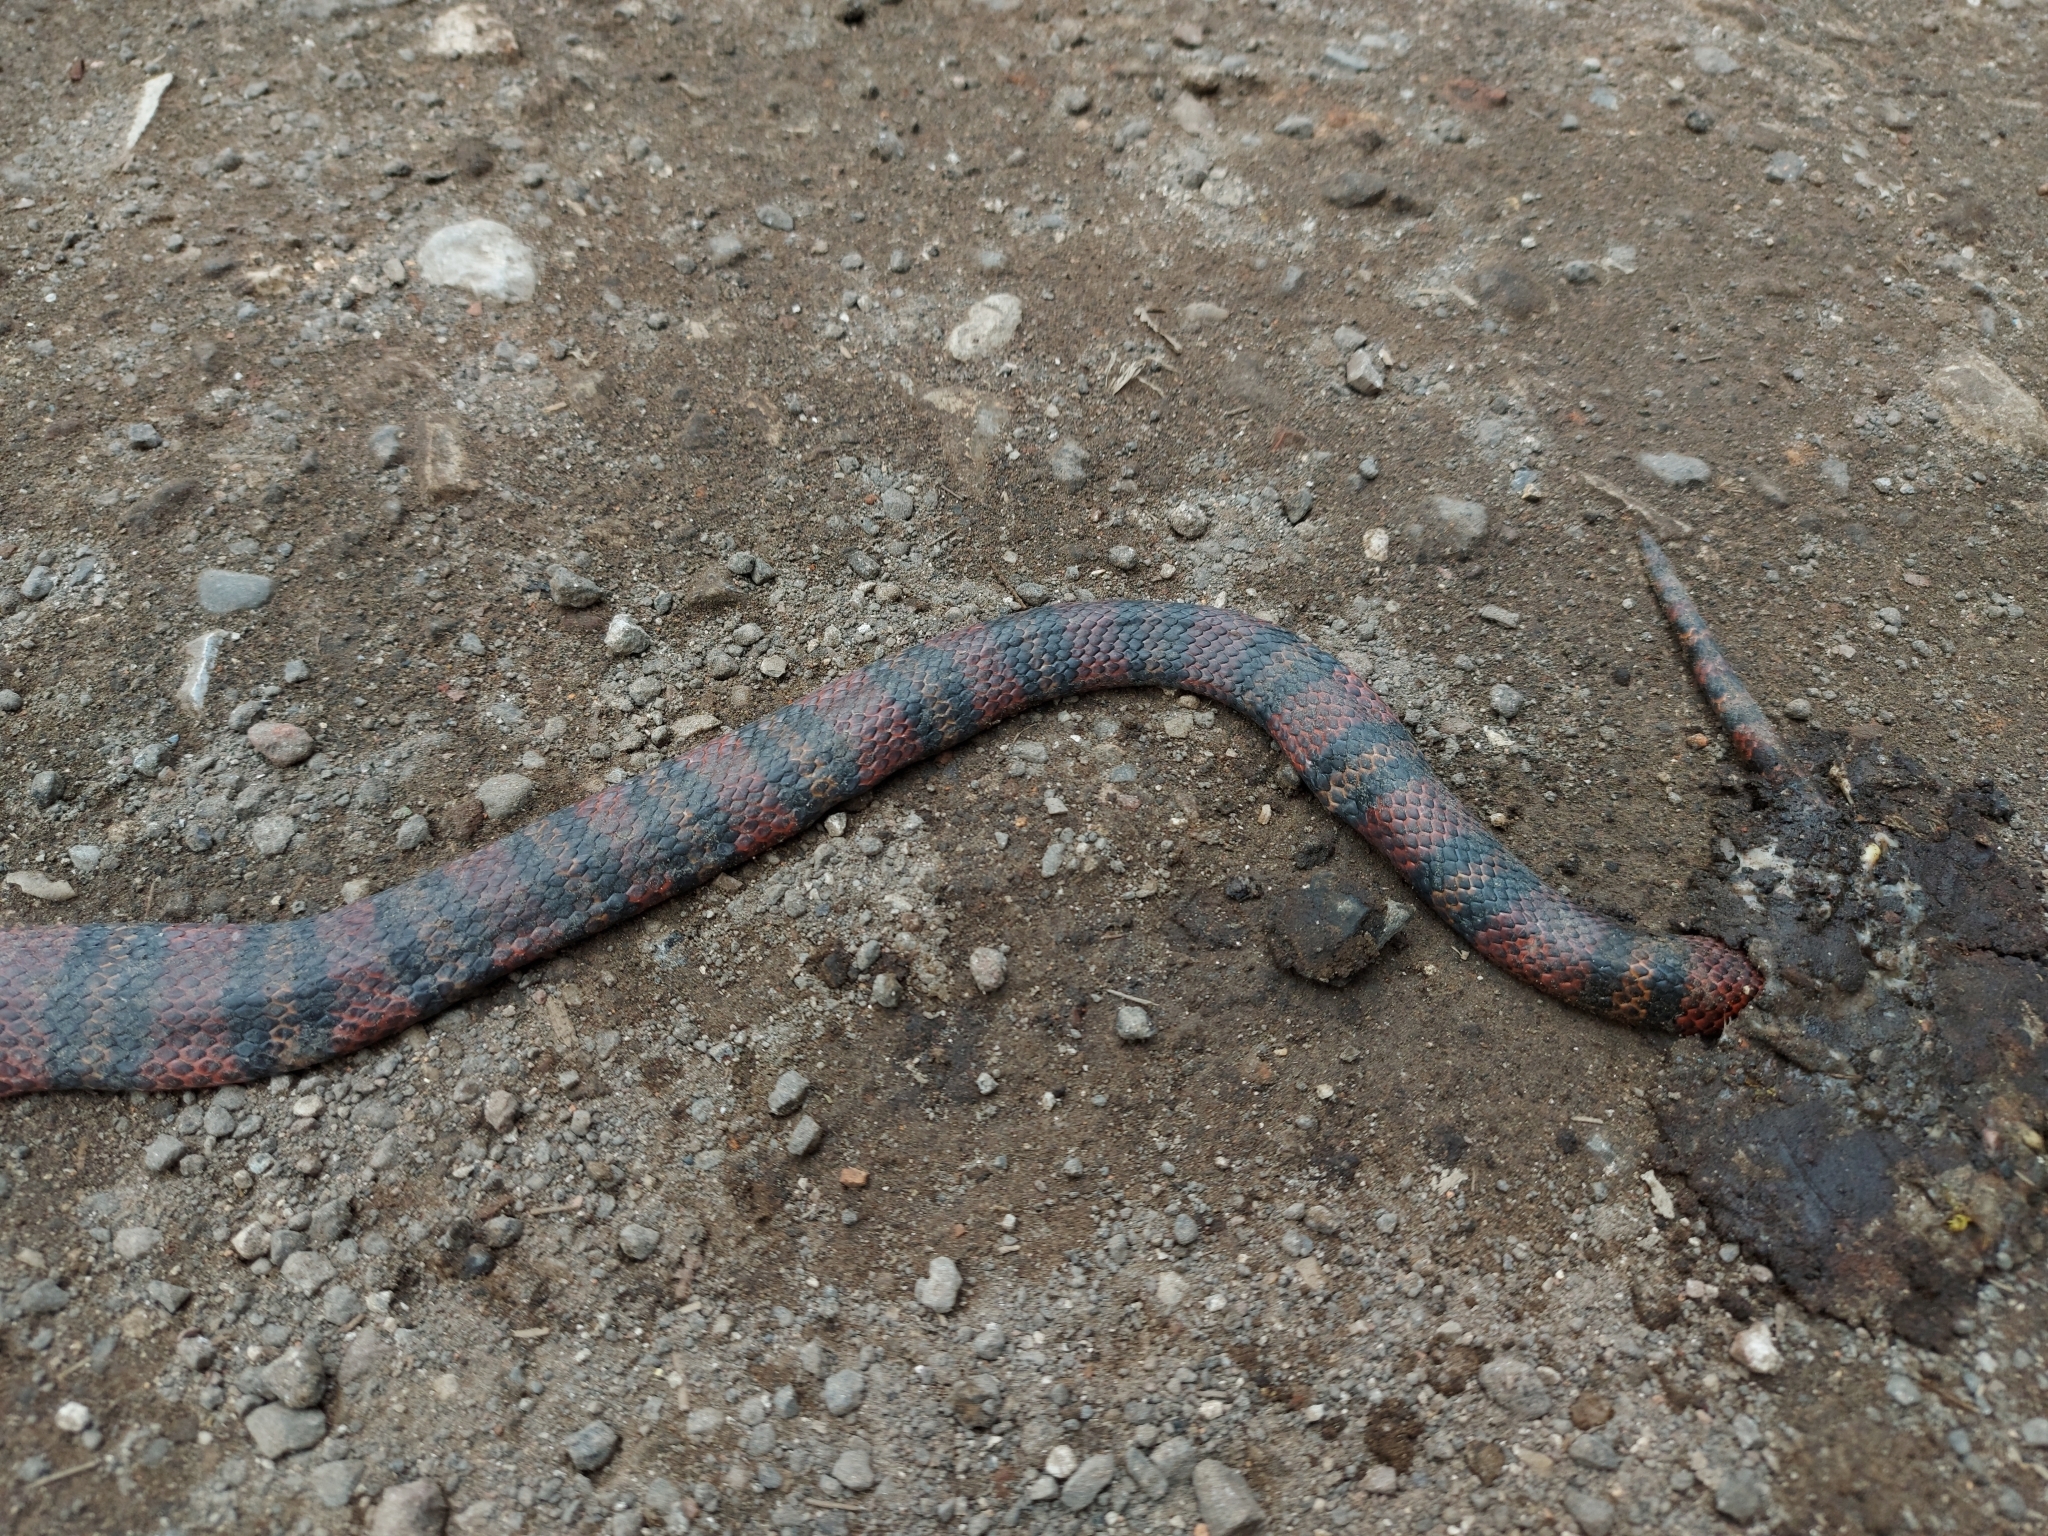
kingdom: Animalia
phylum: Chordata
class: Squamata
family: Colubridae
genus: Lampropeltis
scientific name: Lampropeltis abnorma
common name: Honduran milk snake
